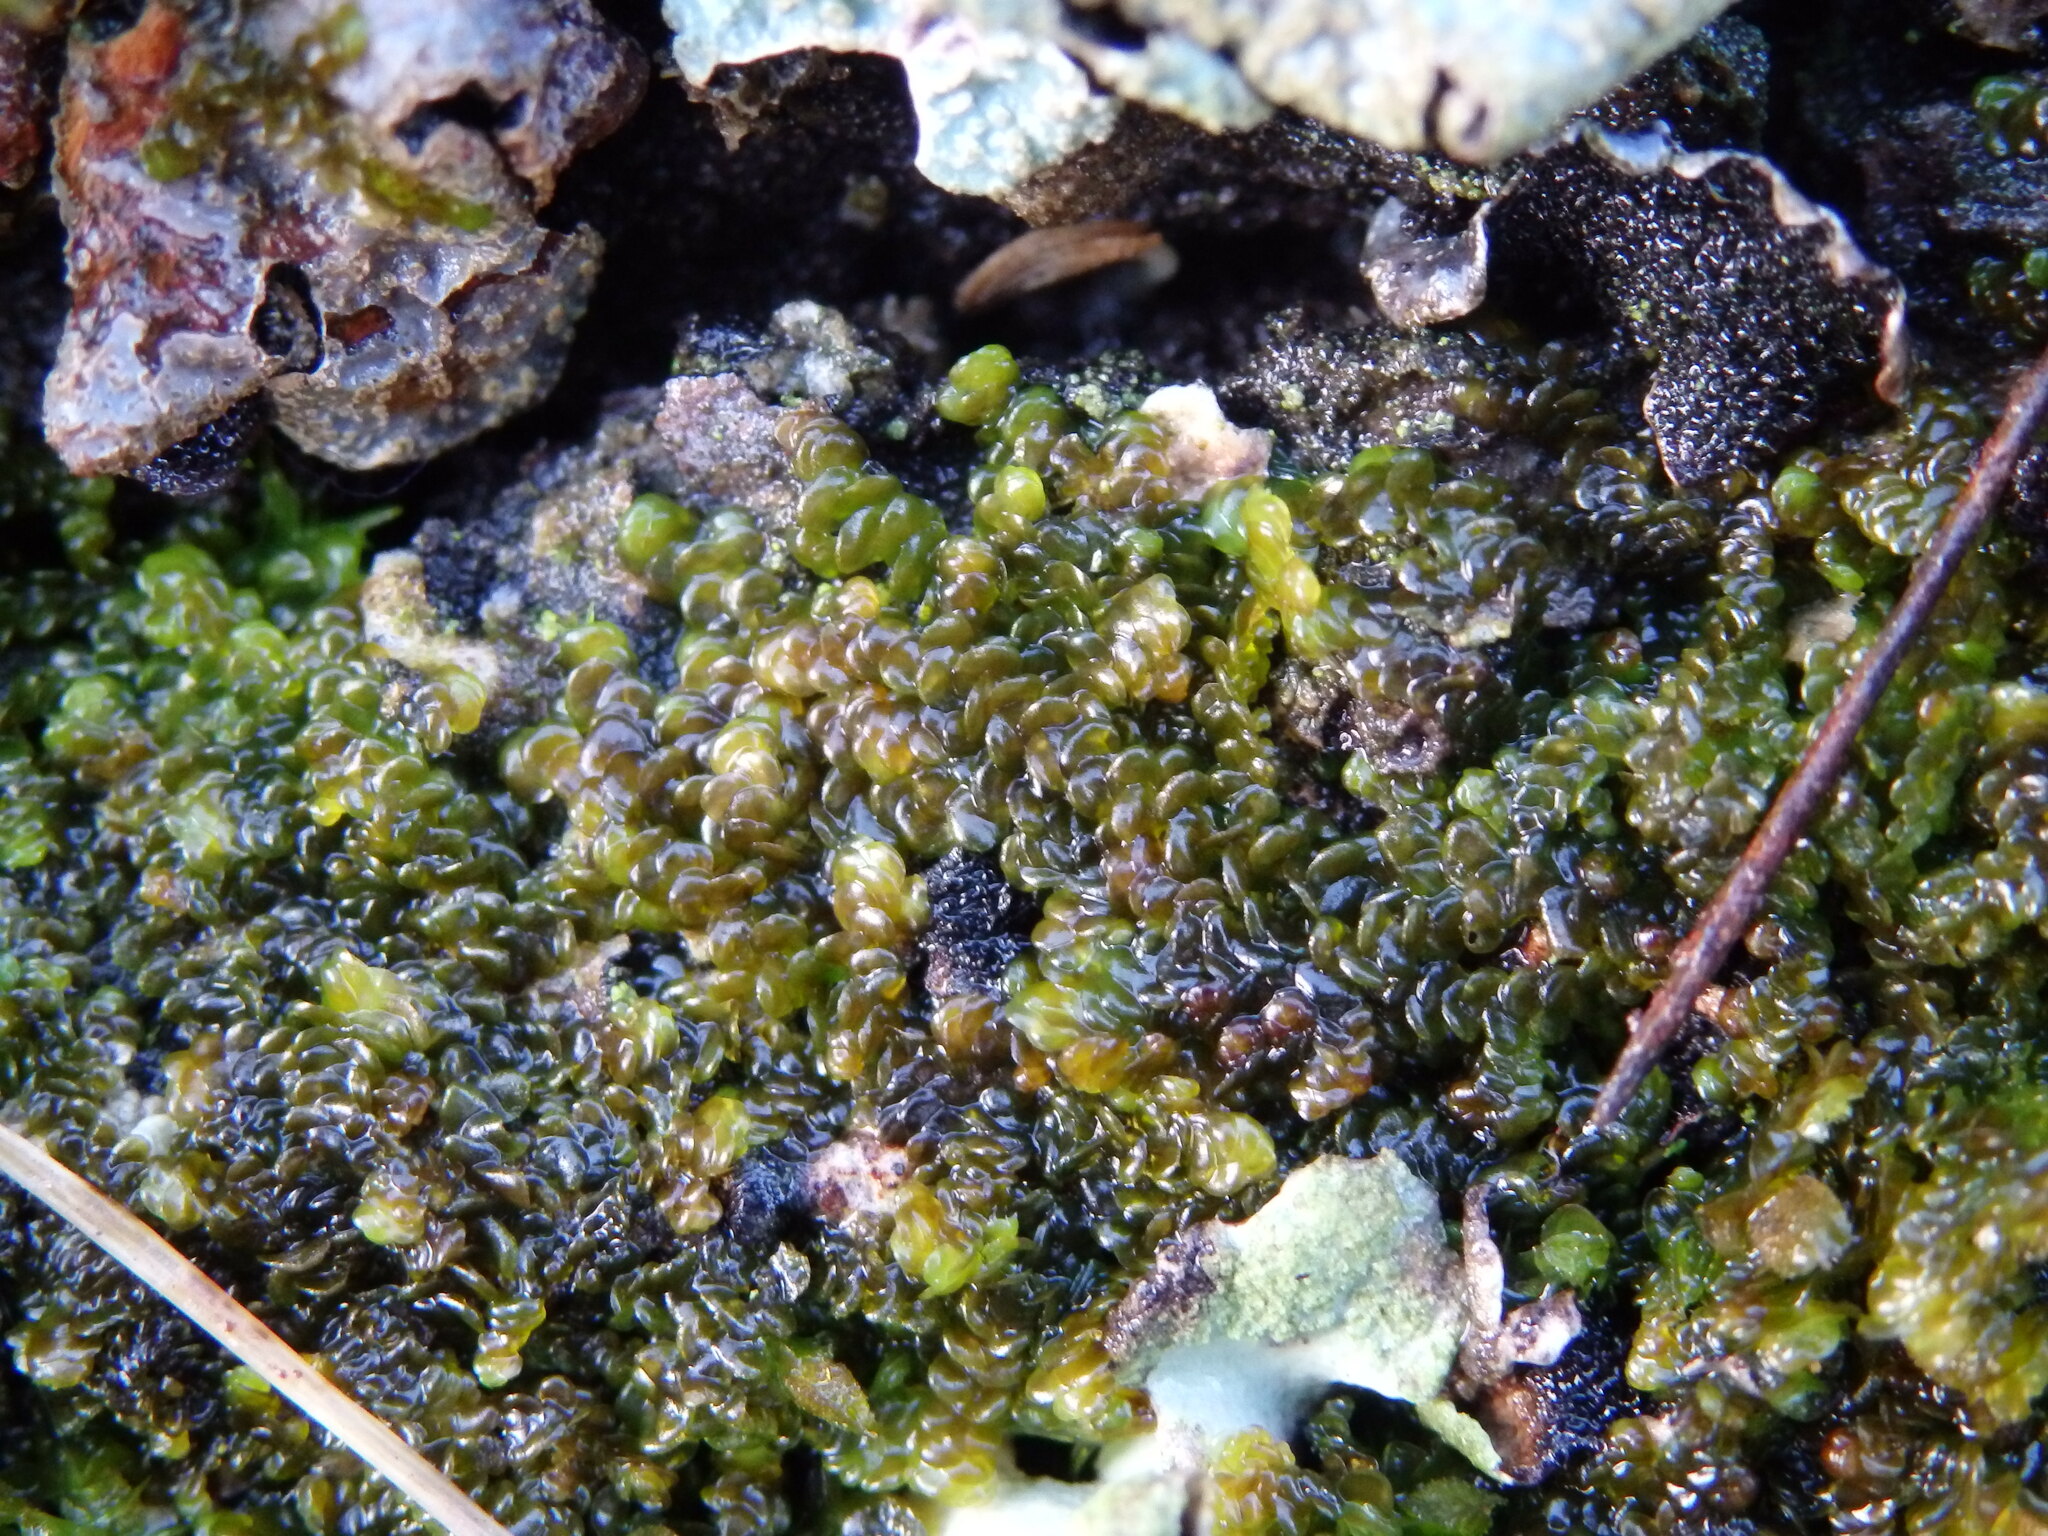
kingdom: Plantae
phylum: Marchantiophyta
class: Jungermanniopsida
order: Porellales
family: Frullaniaceae
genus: Frullania
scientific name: Frullania dilatata
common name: Dilated scalewort
